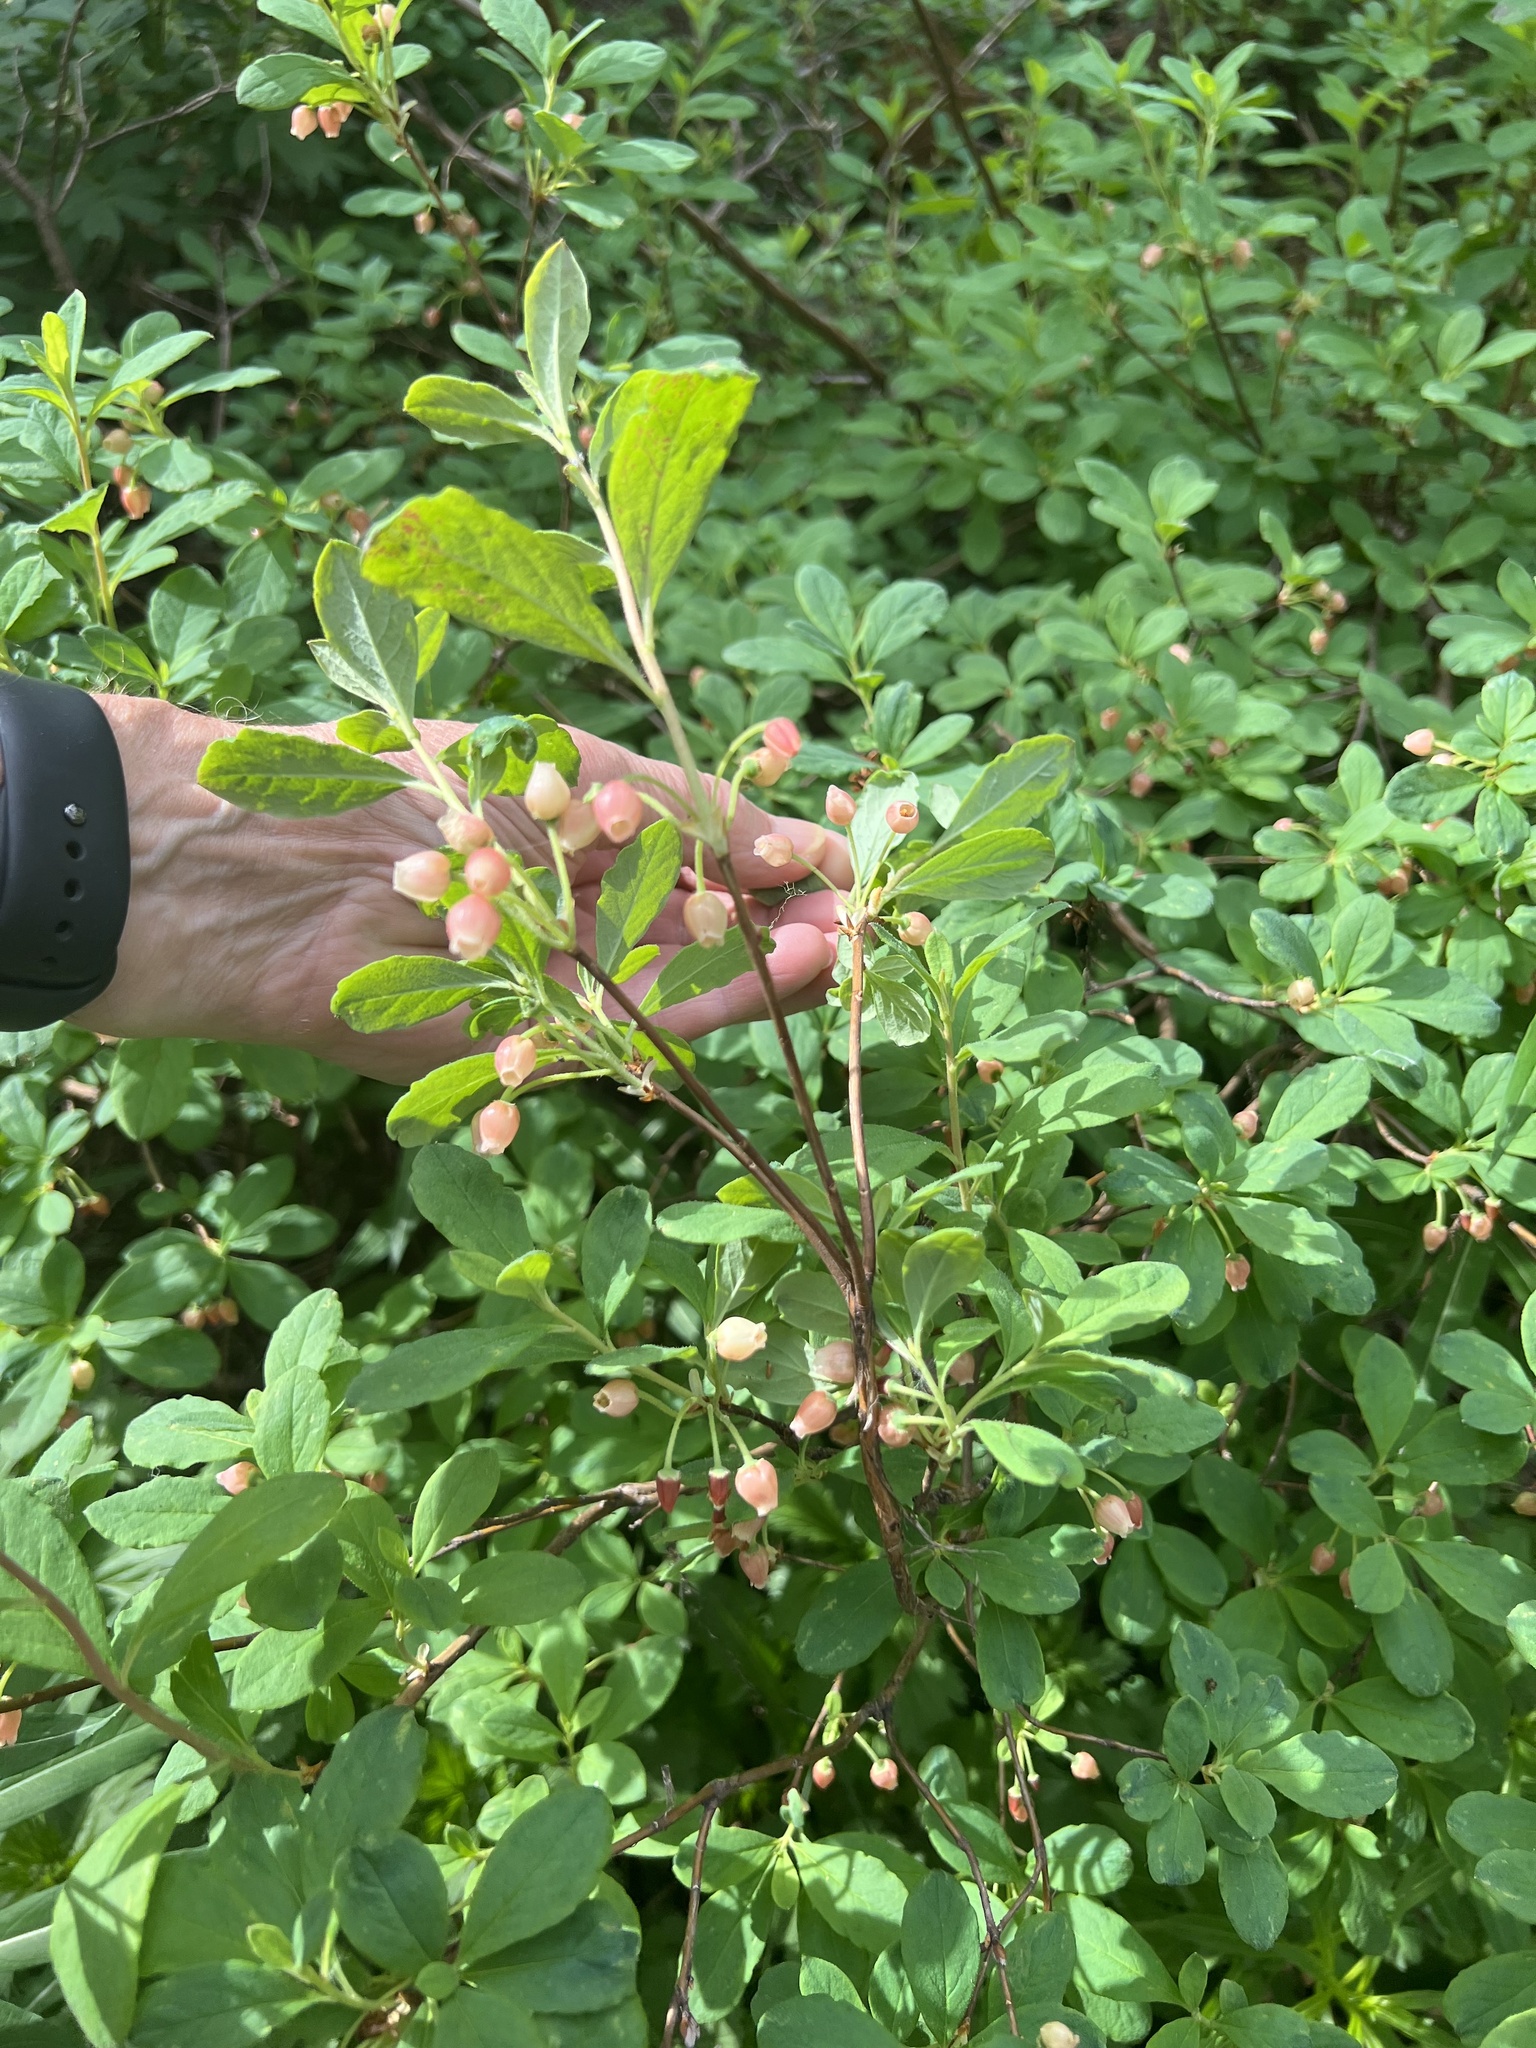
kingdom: Plantae
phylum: Tracheophyta
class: Magnoliopsida
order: Ericales
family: Ericaceae
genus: Rhododendron
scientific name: Rhododendron menziesii
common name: Pacific menziesia
